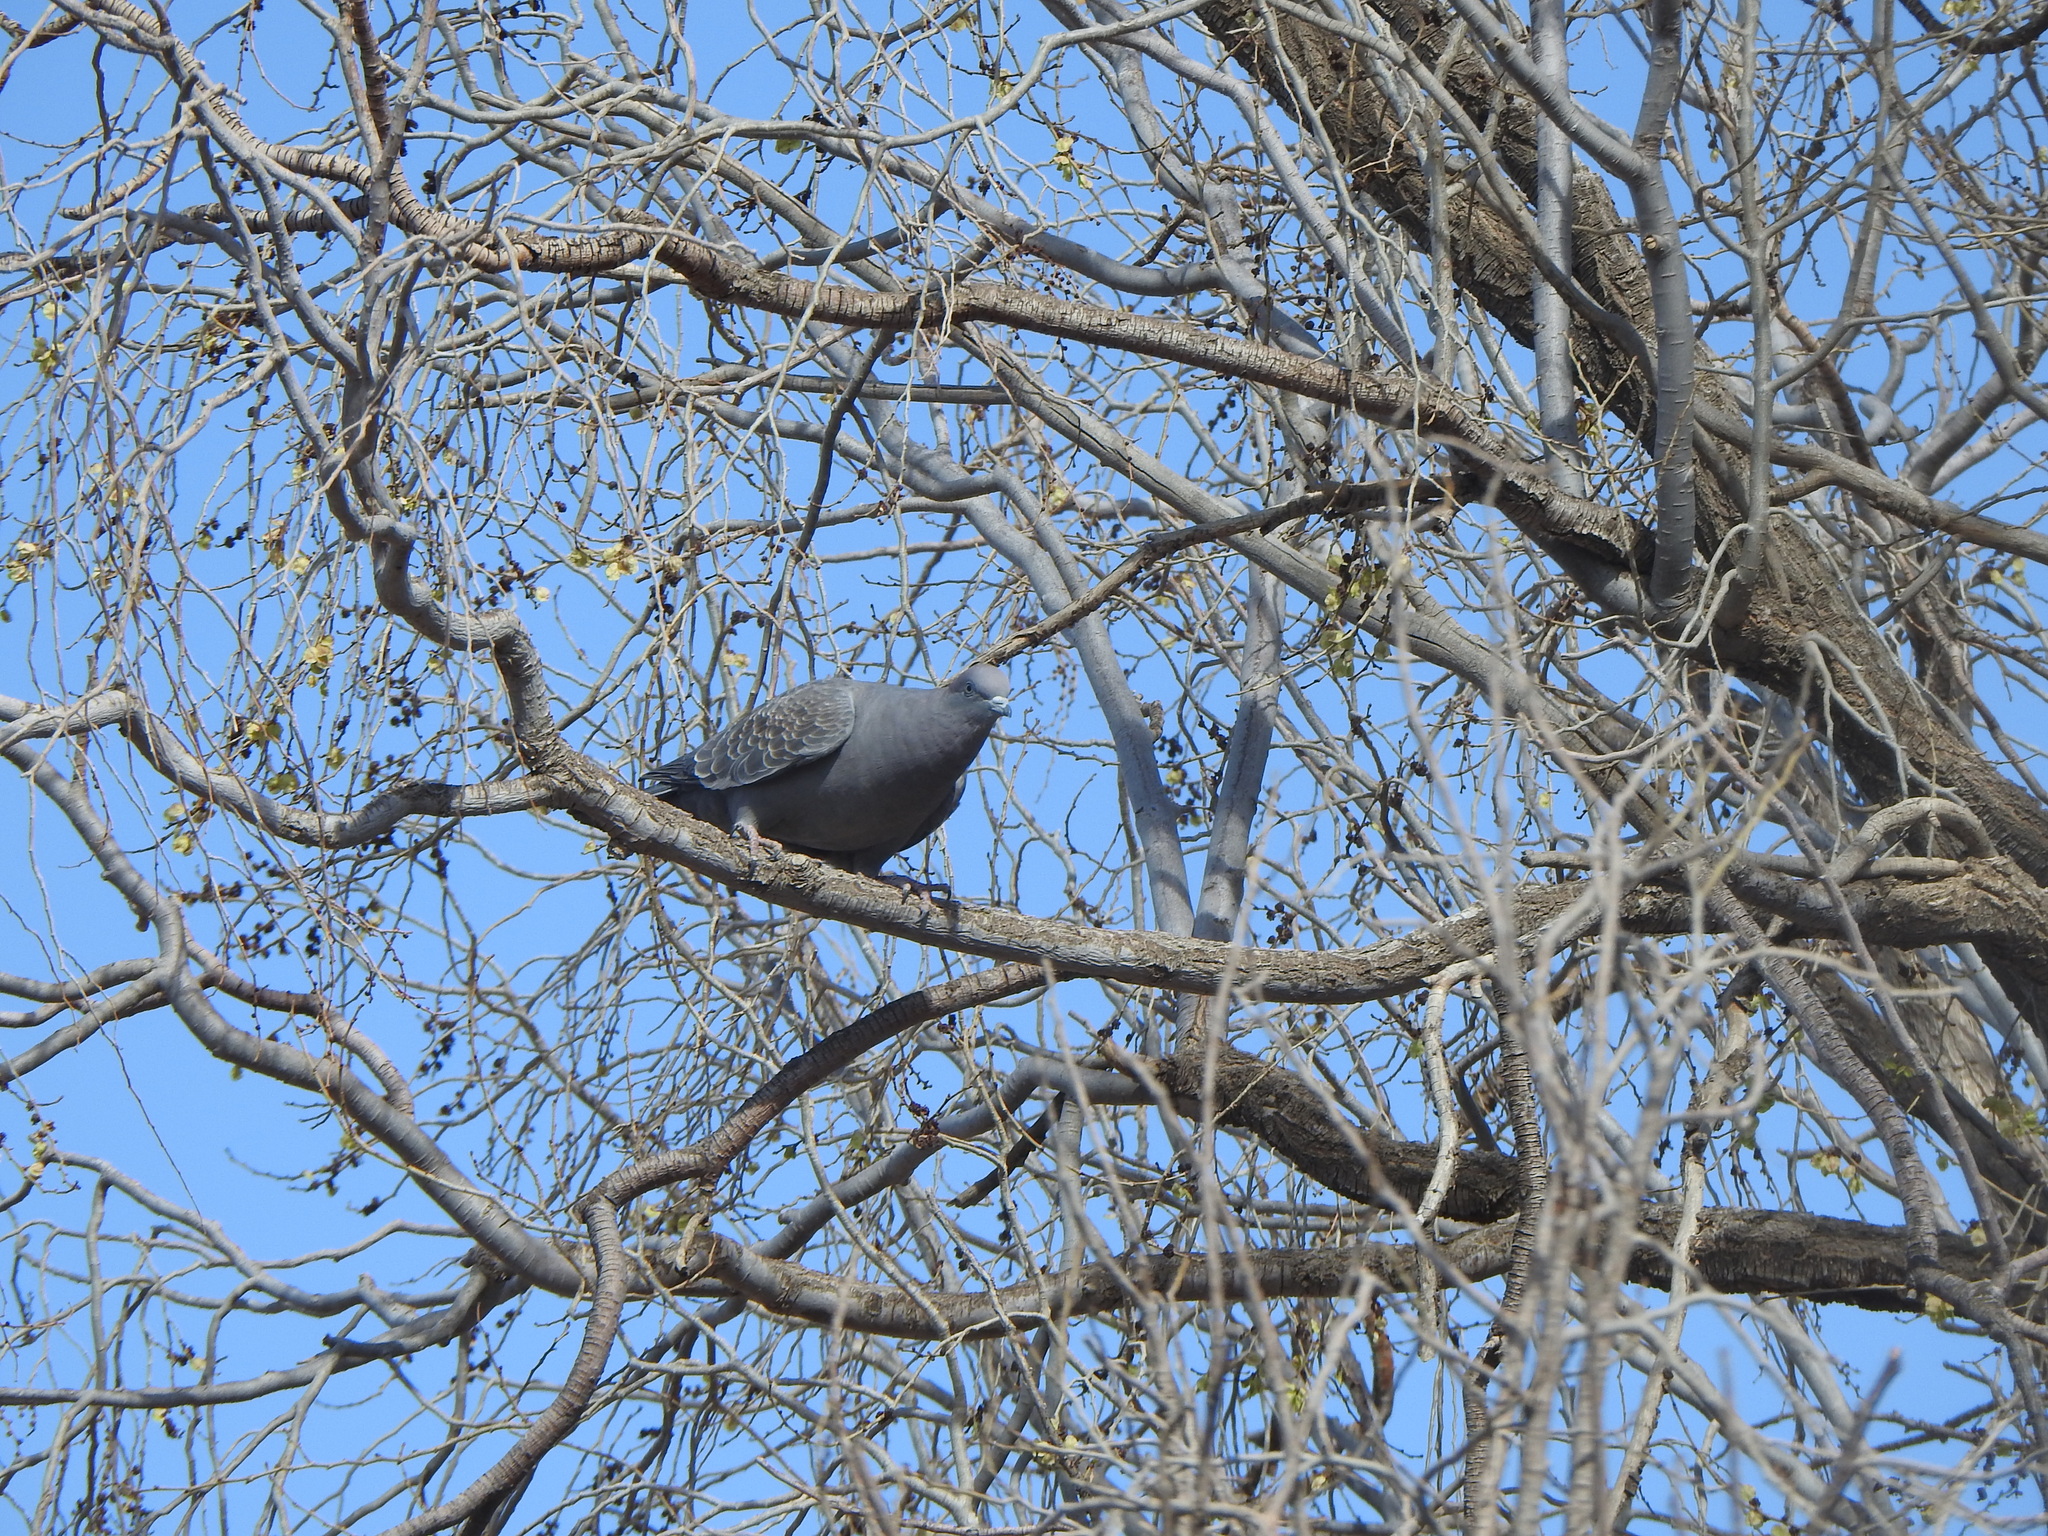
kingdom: Animalia
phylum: Chordata
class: Aves
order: Columbiformes
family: Columbidae
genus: Patagioenas
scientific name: Patagioenas maculosa
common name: Spot-winged pigeon
